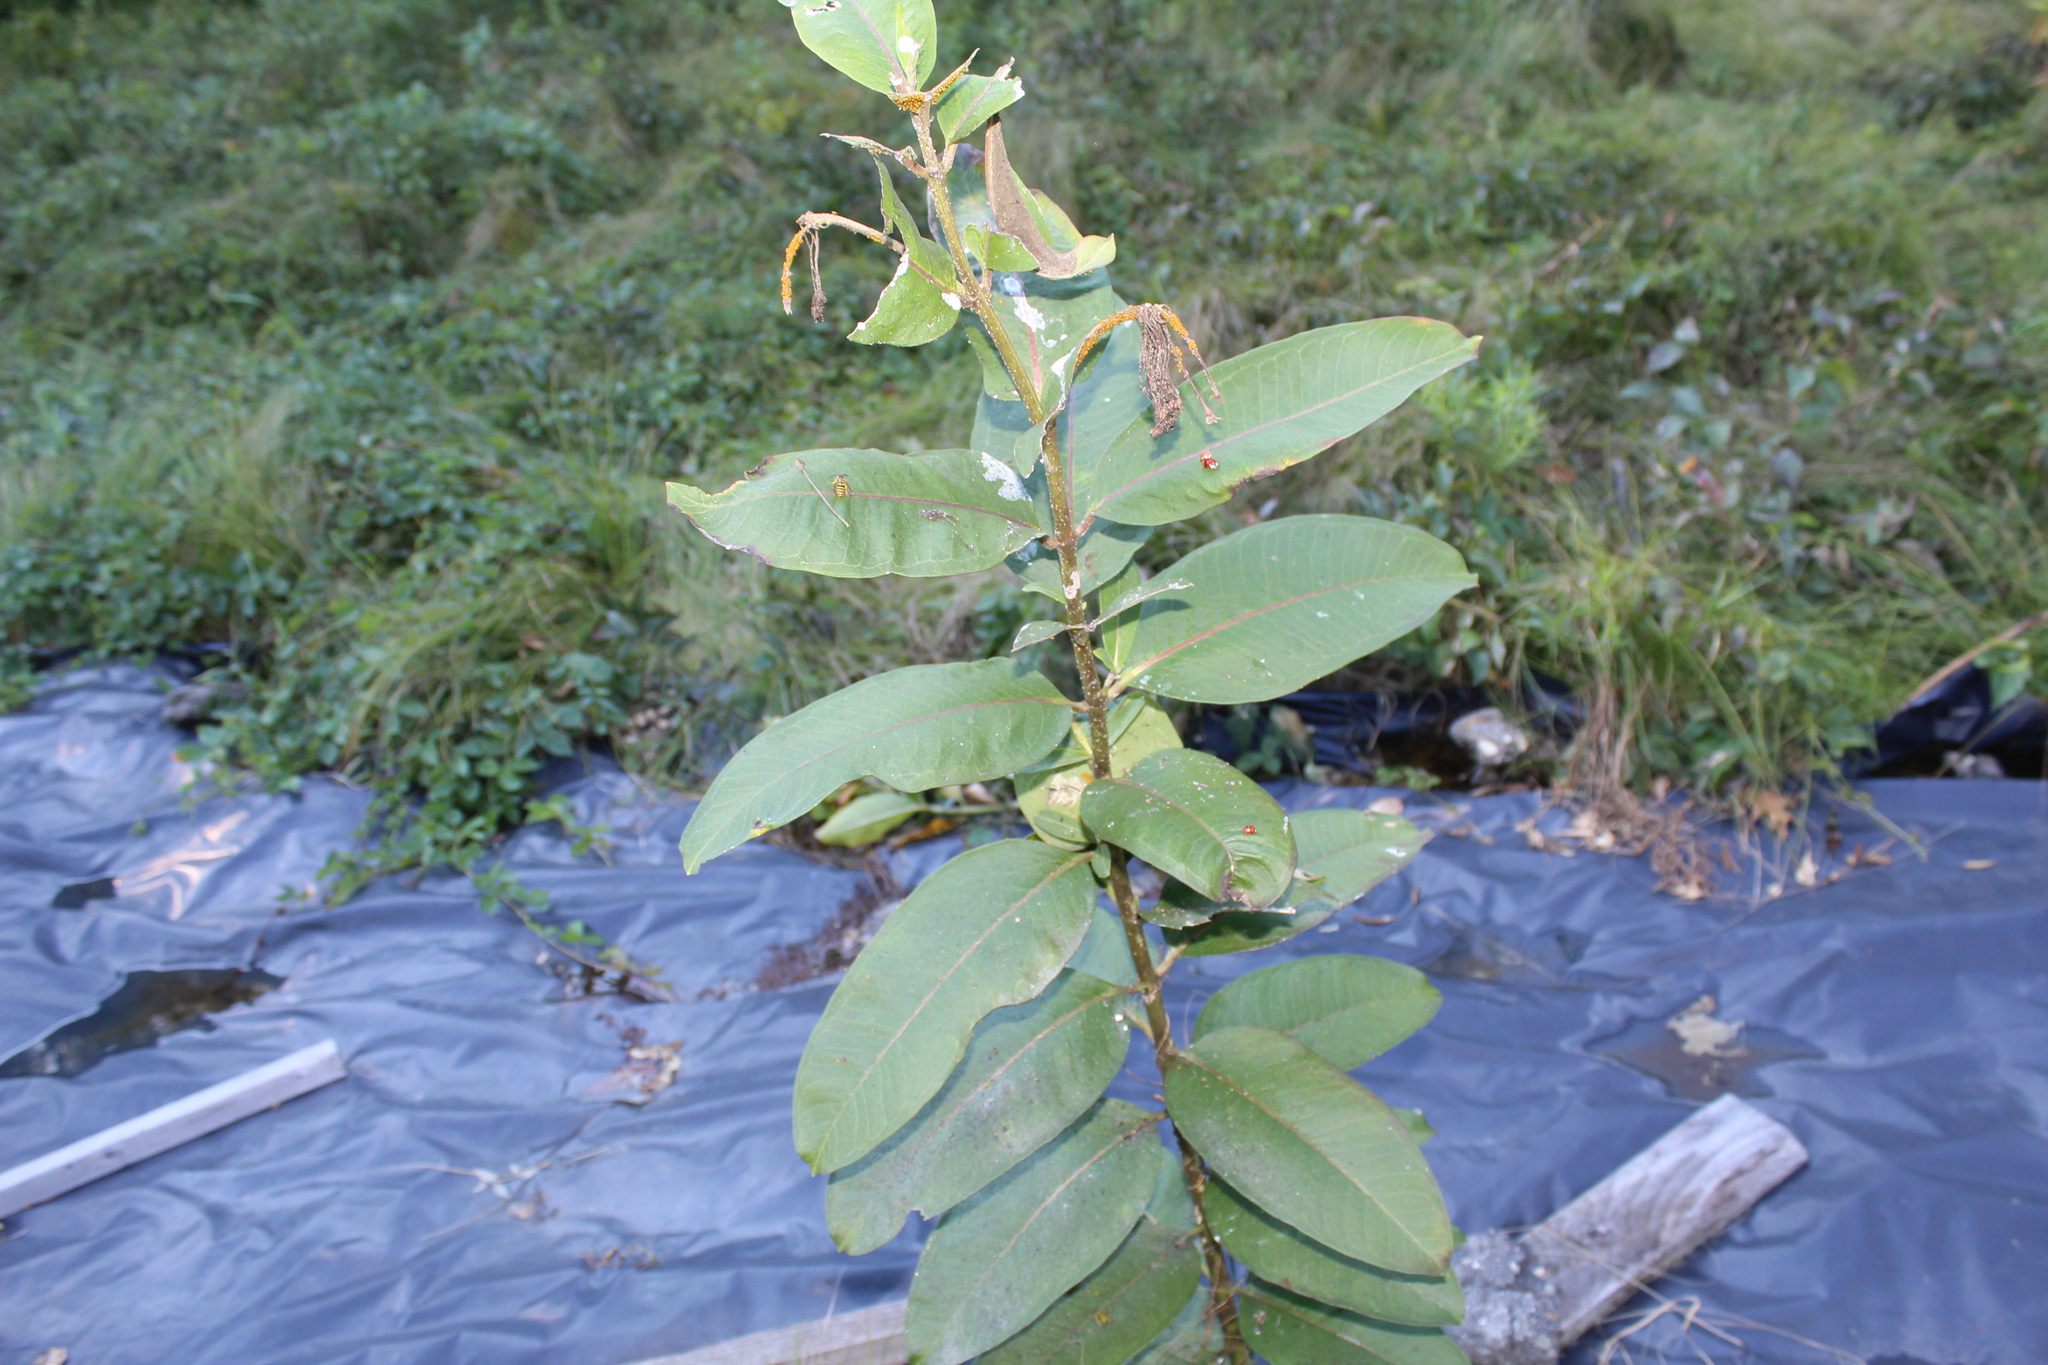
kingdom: Plantae
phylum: Tracheophyta
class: Magnoliopsida
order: Gentianales
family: Apocynaceae
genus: Asclepias
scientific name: Asclepias syriaca
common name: Common milkweed
